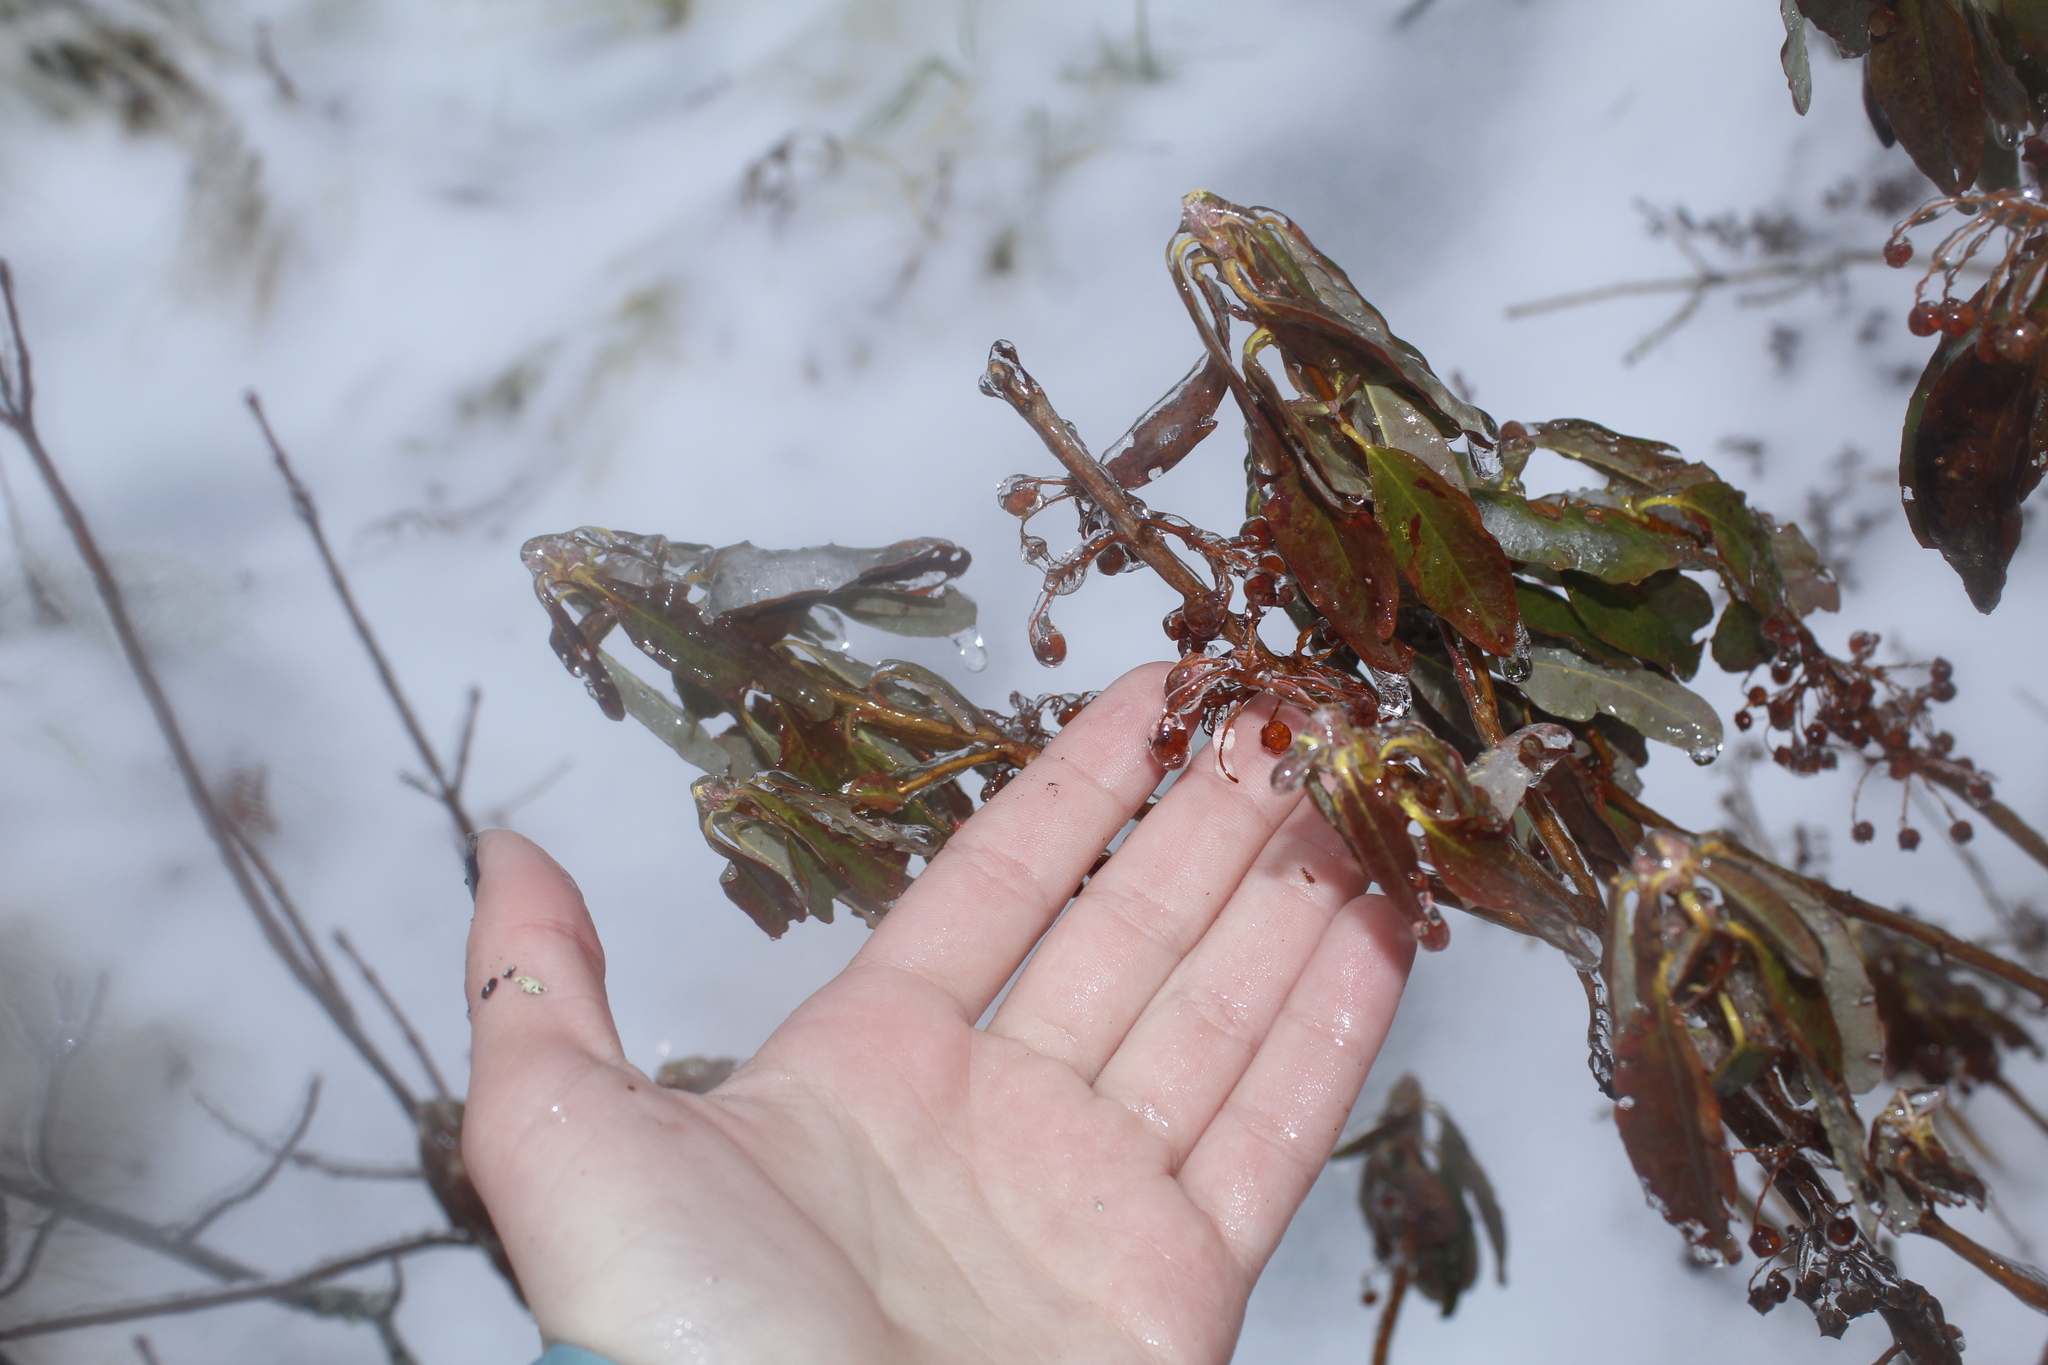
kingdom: Plantae
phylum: Tracheophyta
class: Magnoliopsida
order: Ericales
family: Ericaceae
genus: Kalmia
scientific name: Kalmia angustifolia
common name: Sheep-laurel
